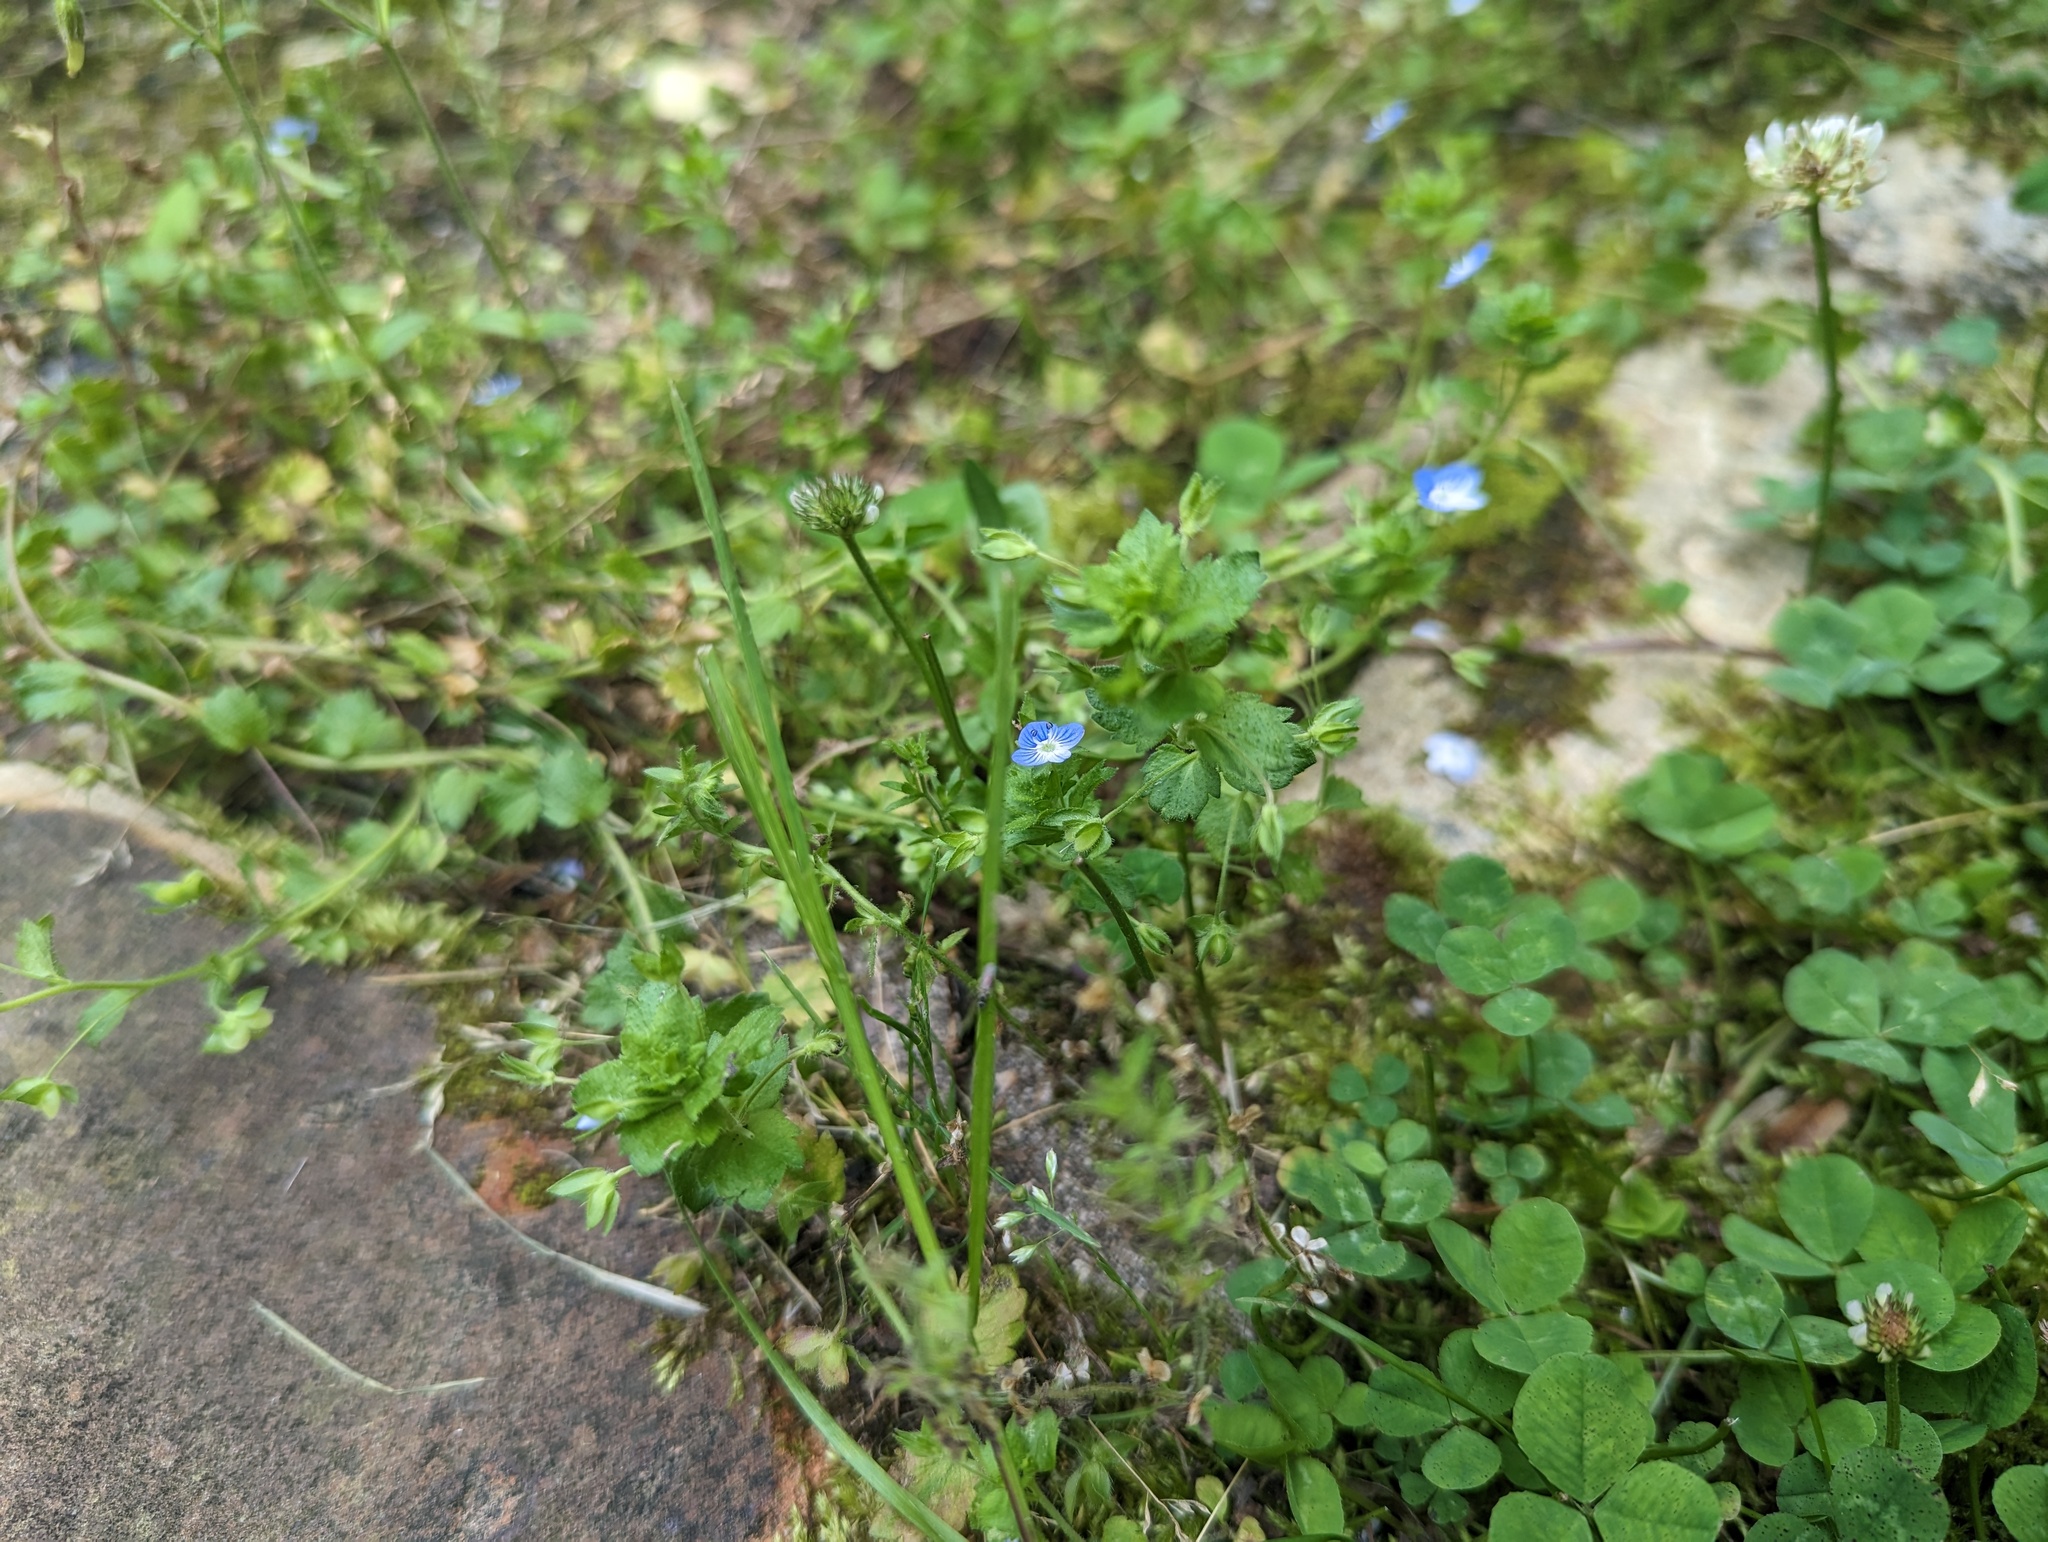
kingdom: Plantae
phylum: Tracheophyta
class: Magnoliopsida
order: Lamiales
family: Plantaginaceae
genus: Veronica
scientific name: Veronica persica
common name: Common field-speedwell
